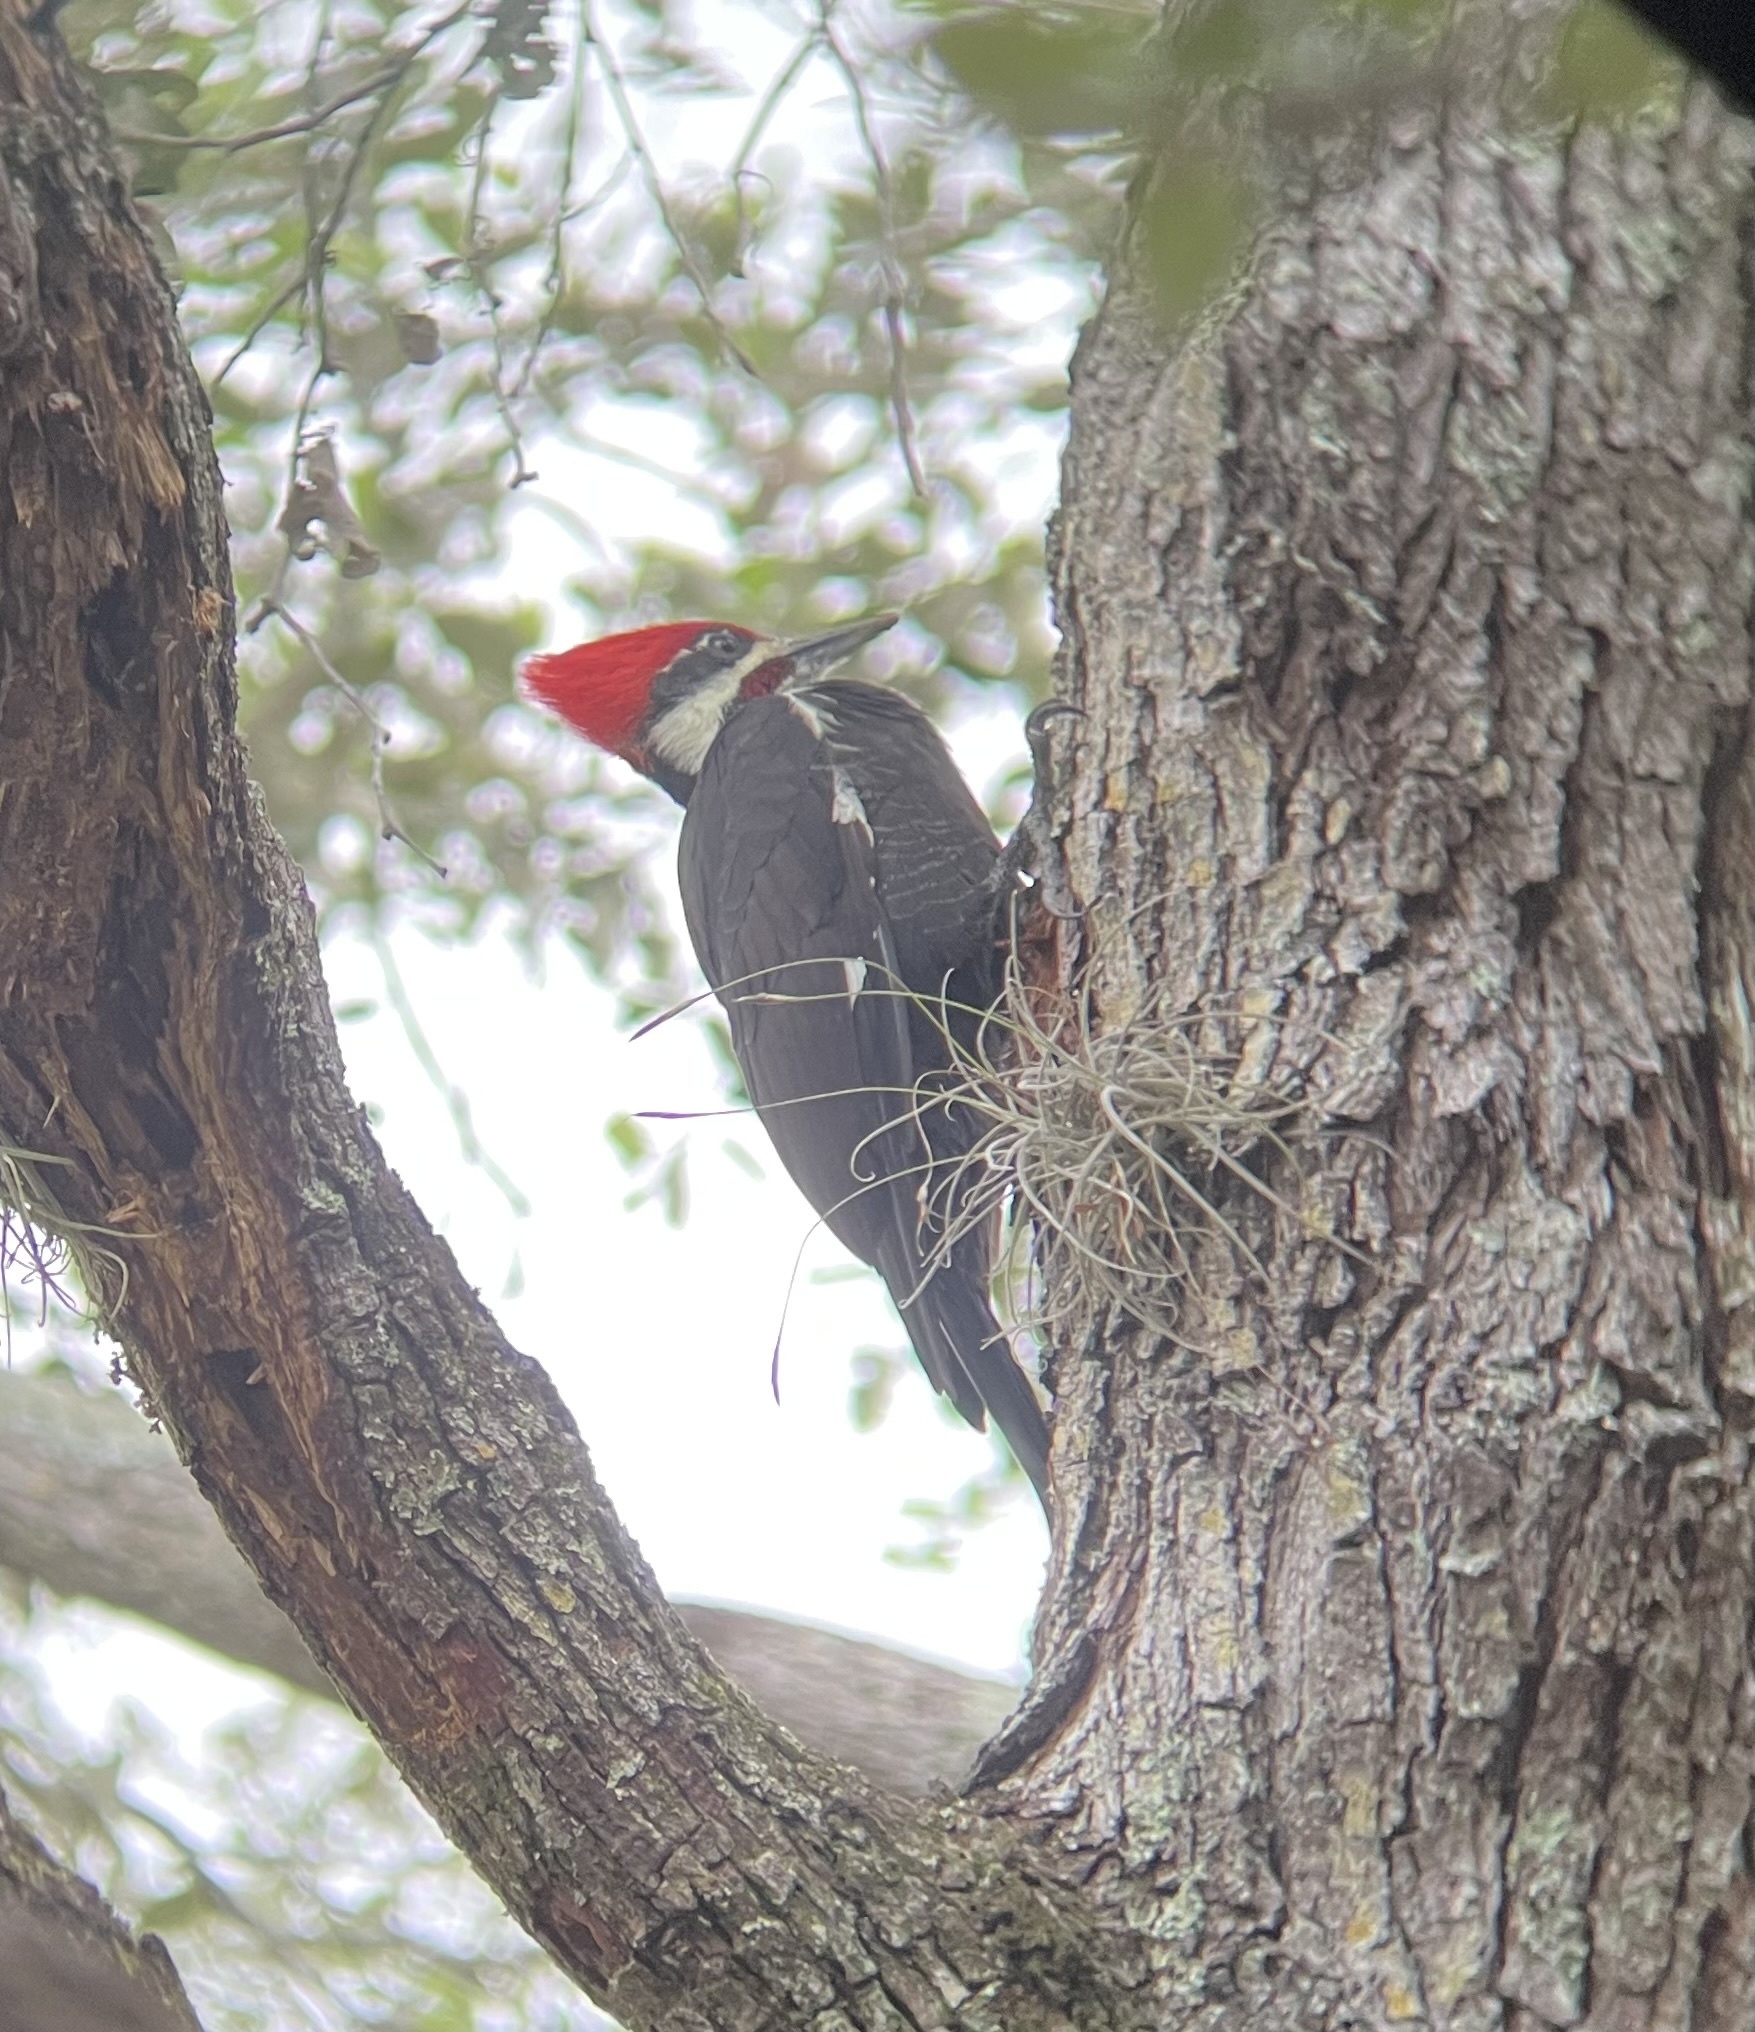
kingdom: Animalia
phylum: Chordata
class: Aves
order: Piciformes
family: Picidae
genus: Dryocopus
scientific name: Dryocopus pileatus
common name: Pileated woodpecker
